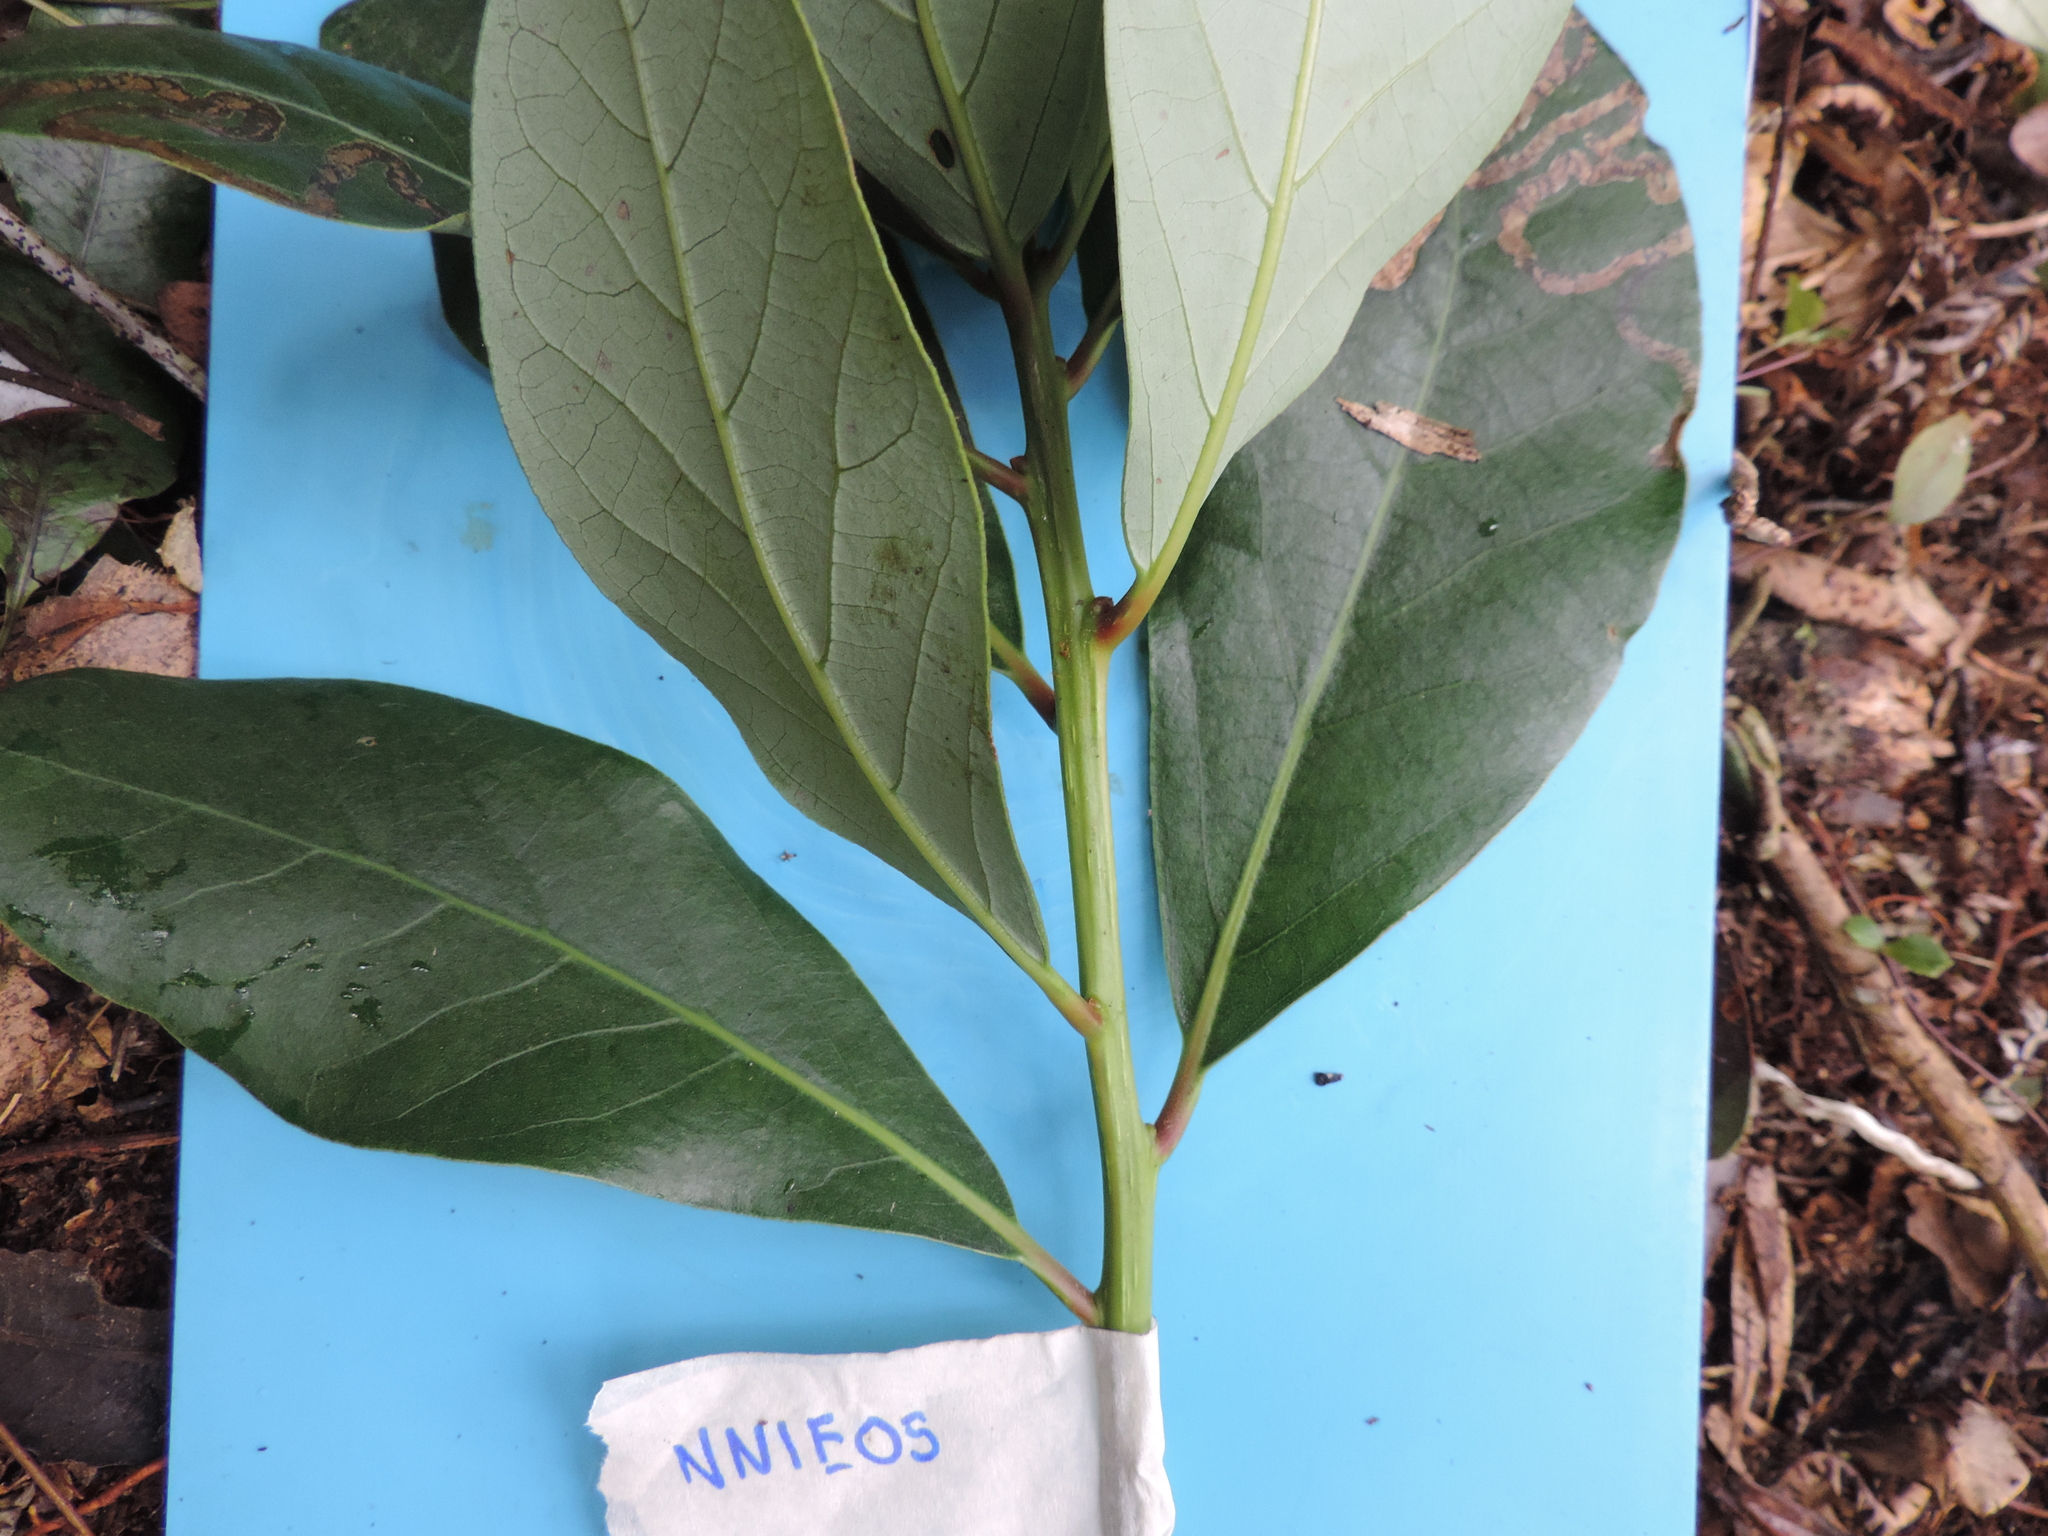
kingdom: Plantae
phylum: Tracheophyta
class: Magnoliopsida
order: Malpighiales
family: Phyllanthaceae
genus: Hieronyma
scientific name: Hieronyma fendleri
